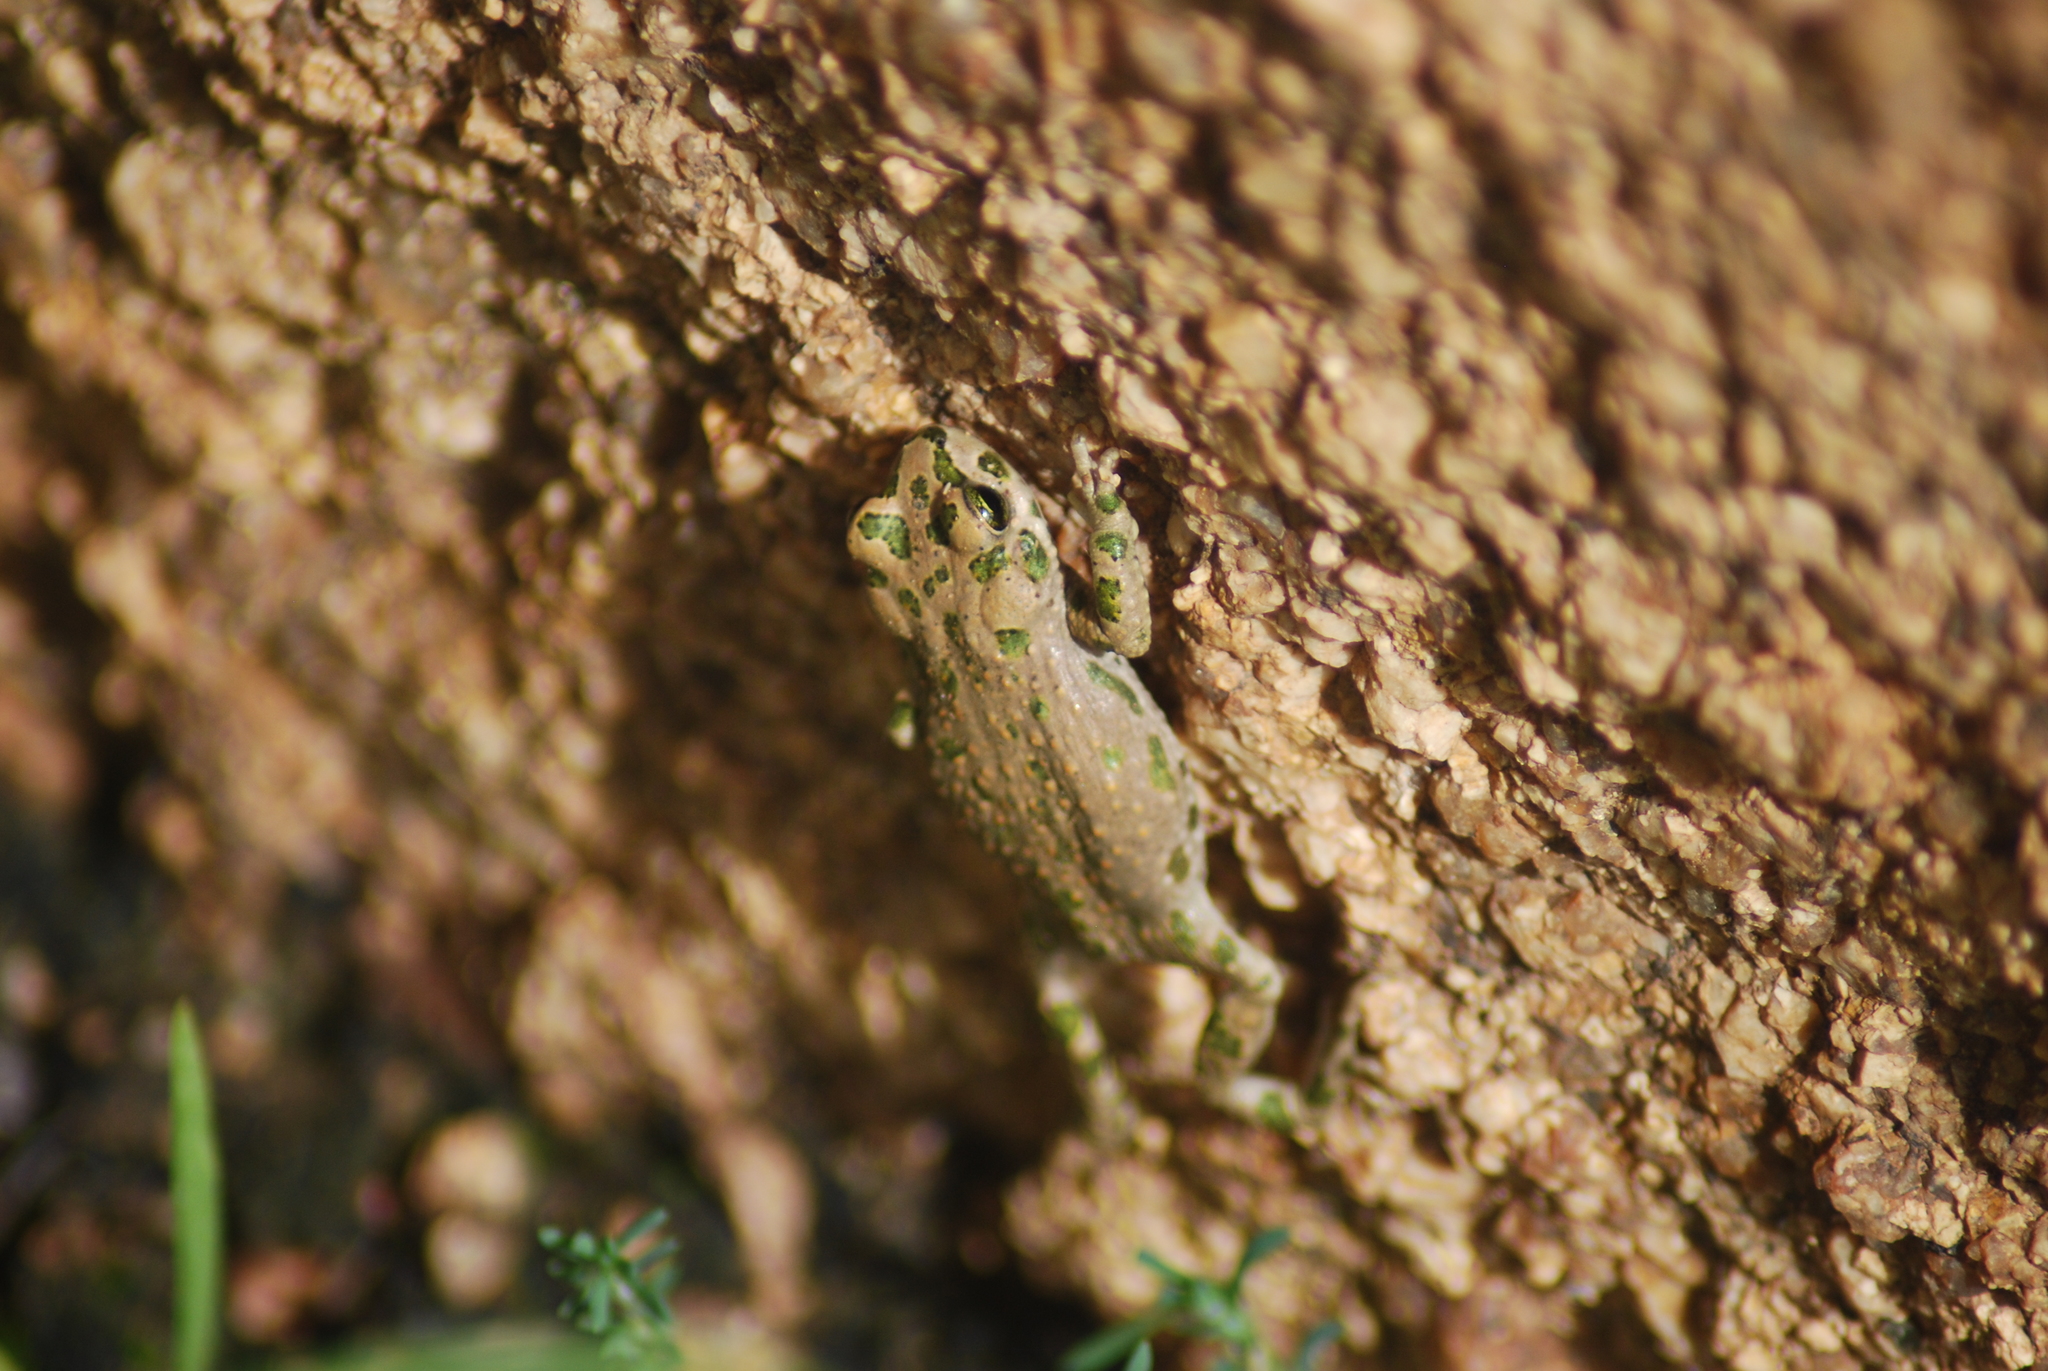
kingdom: Animalia
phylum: Chordata
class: Amphibia
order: Anura
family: Bufonidae
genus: Barbarophryne
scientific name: Barbarophryne brongersmai
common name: Brongersma's toad
